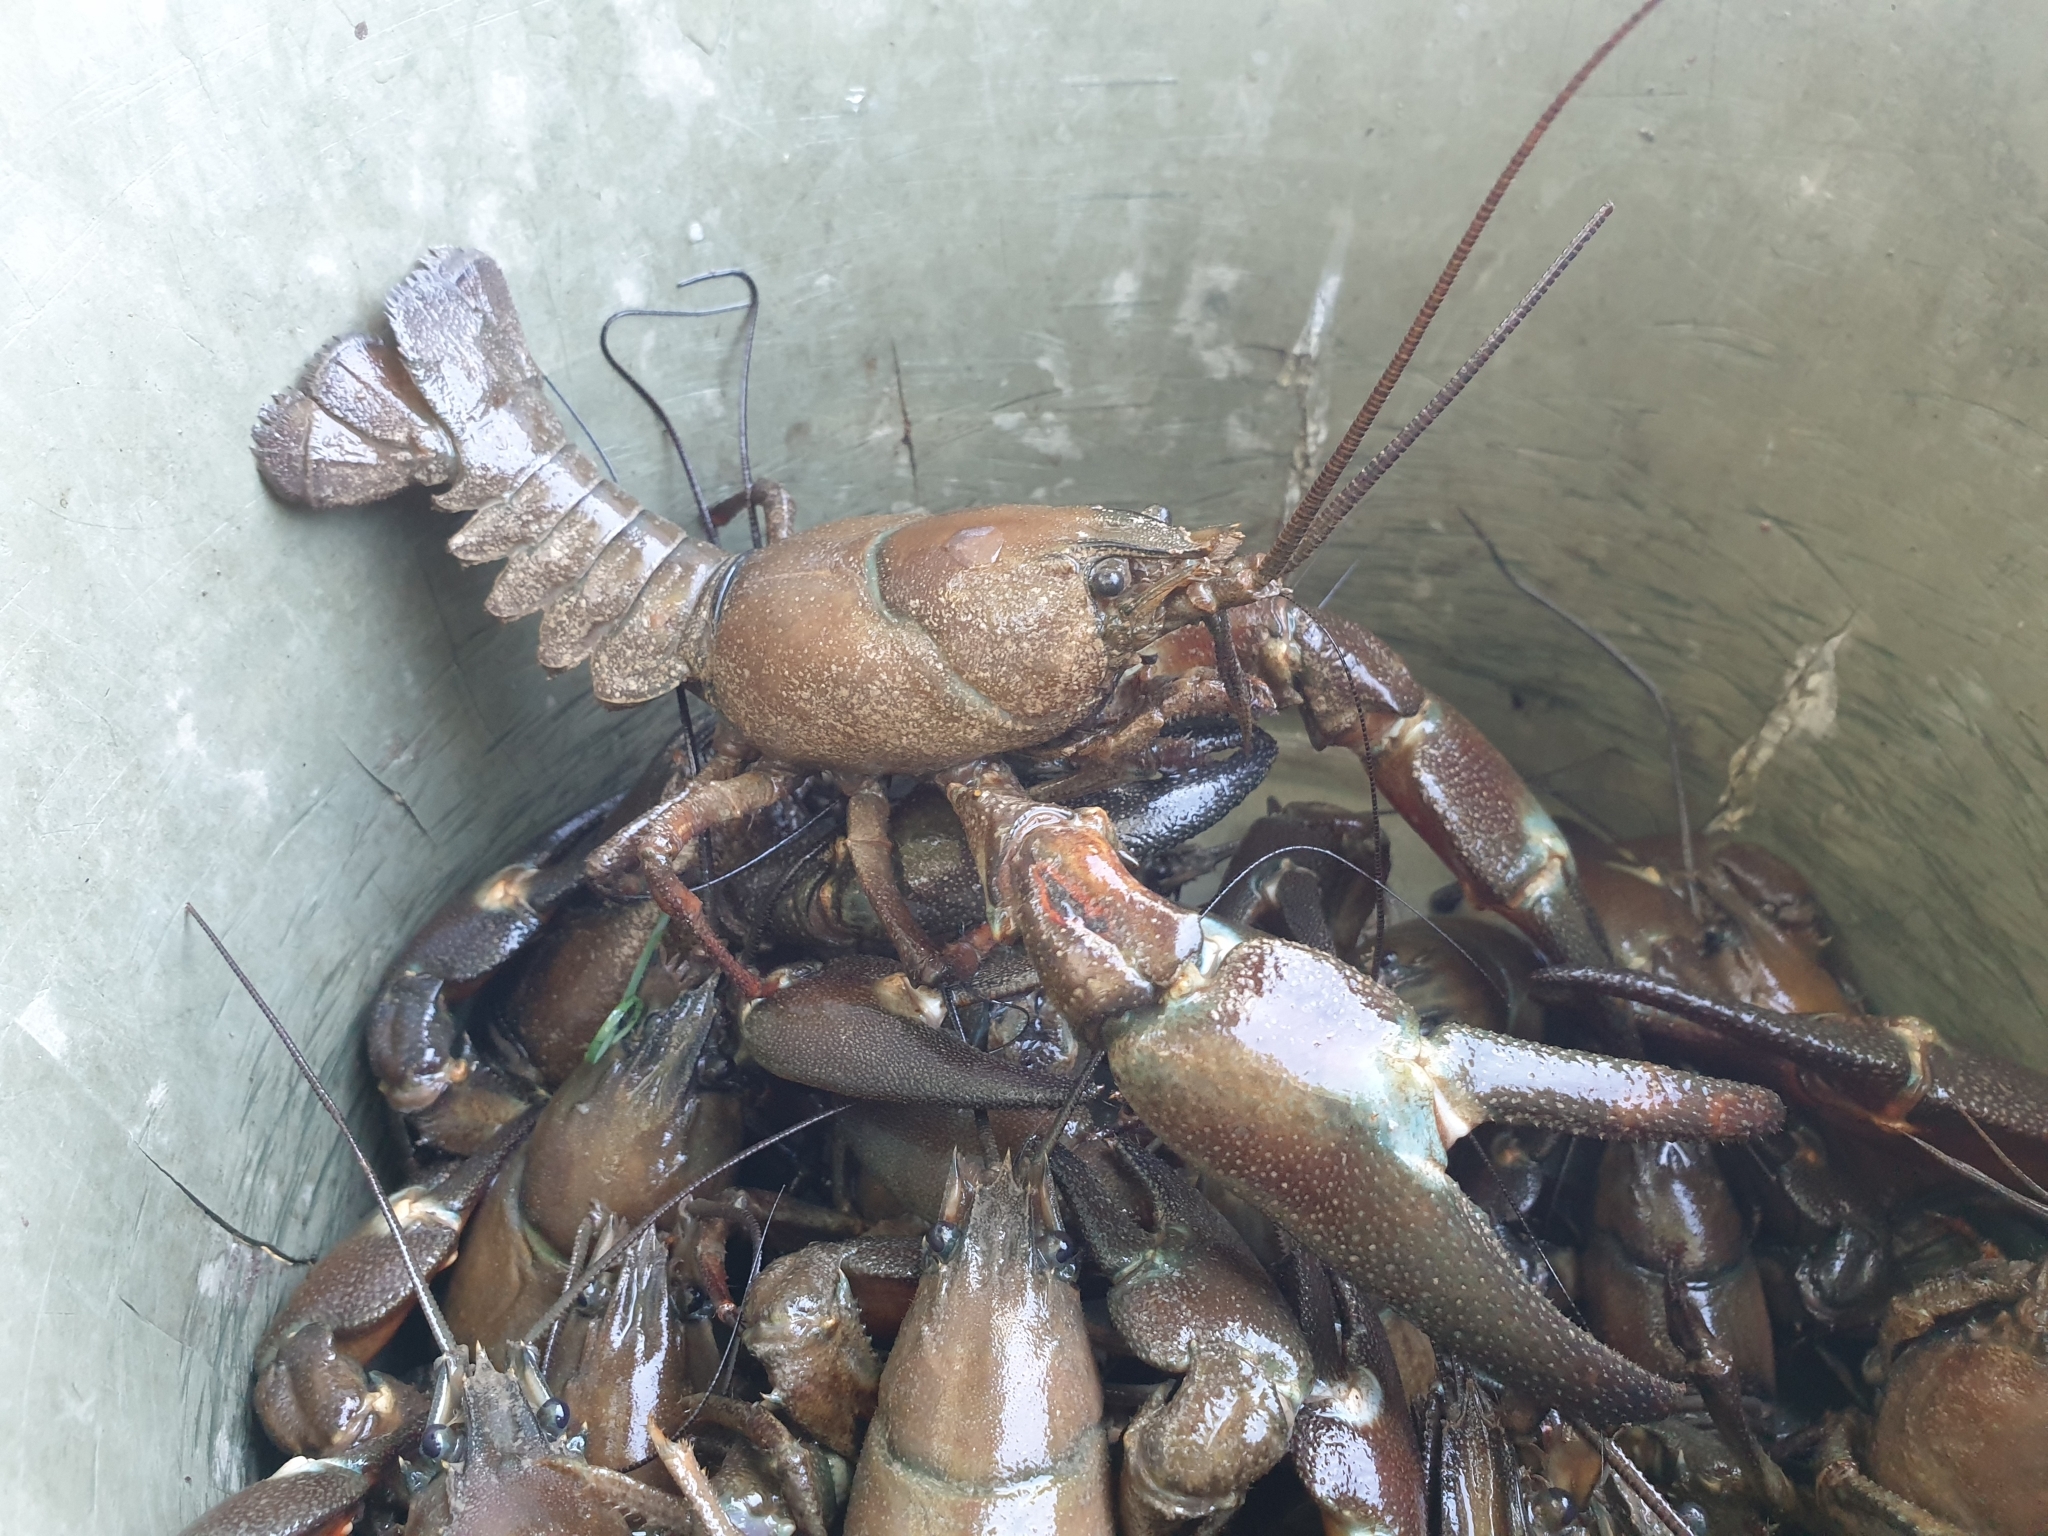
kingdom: Animalia
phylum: Arthropoda
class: Malacostraca
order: Decapoda
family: Astacidae
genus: Pacifastacus
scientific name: Pacifastacus leniusculus
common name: Signal crayfish
